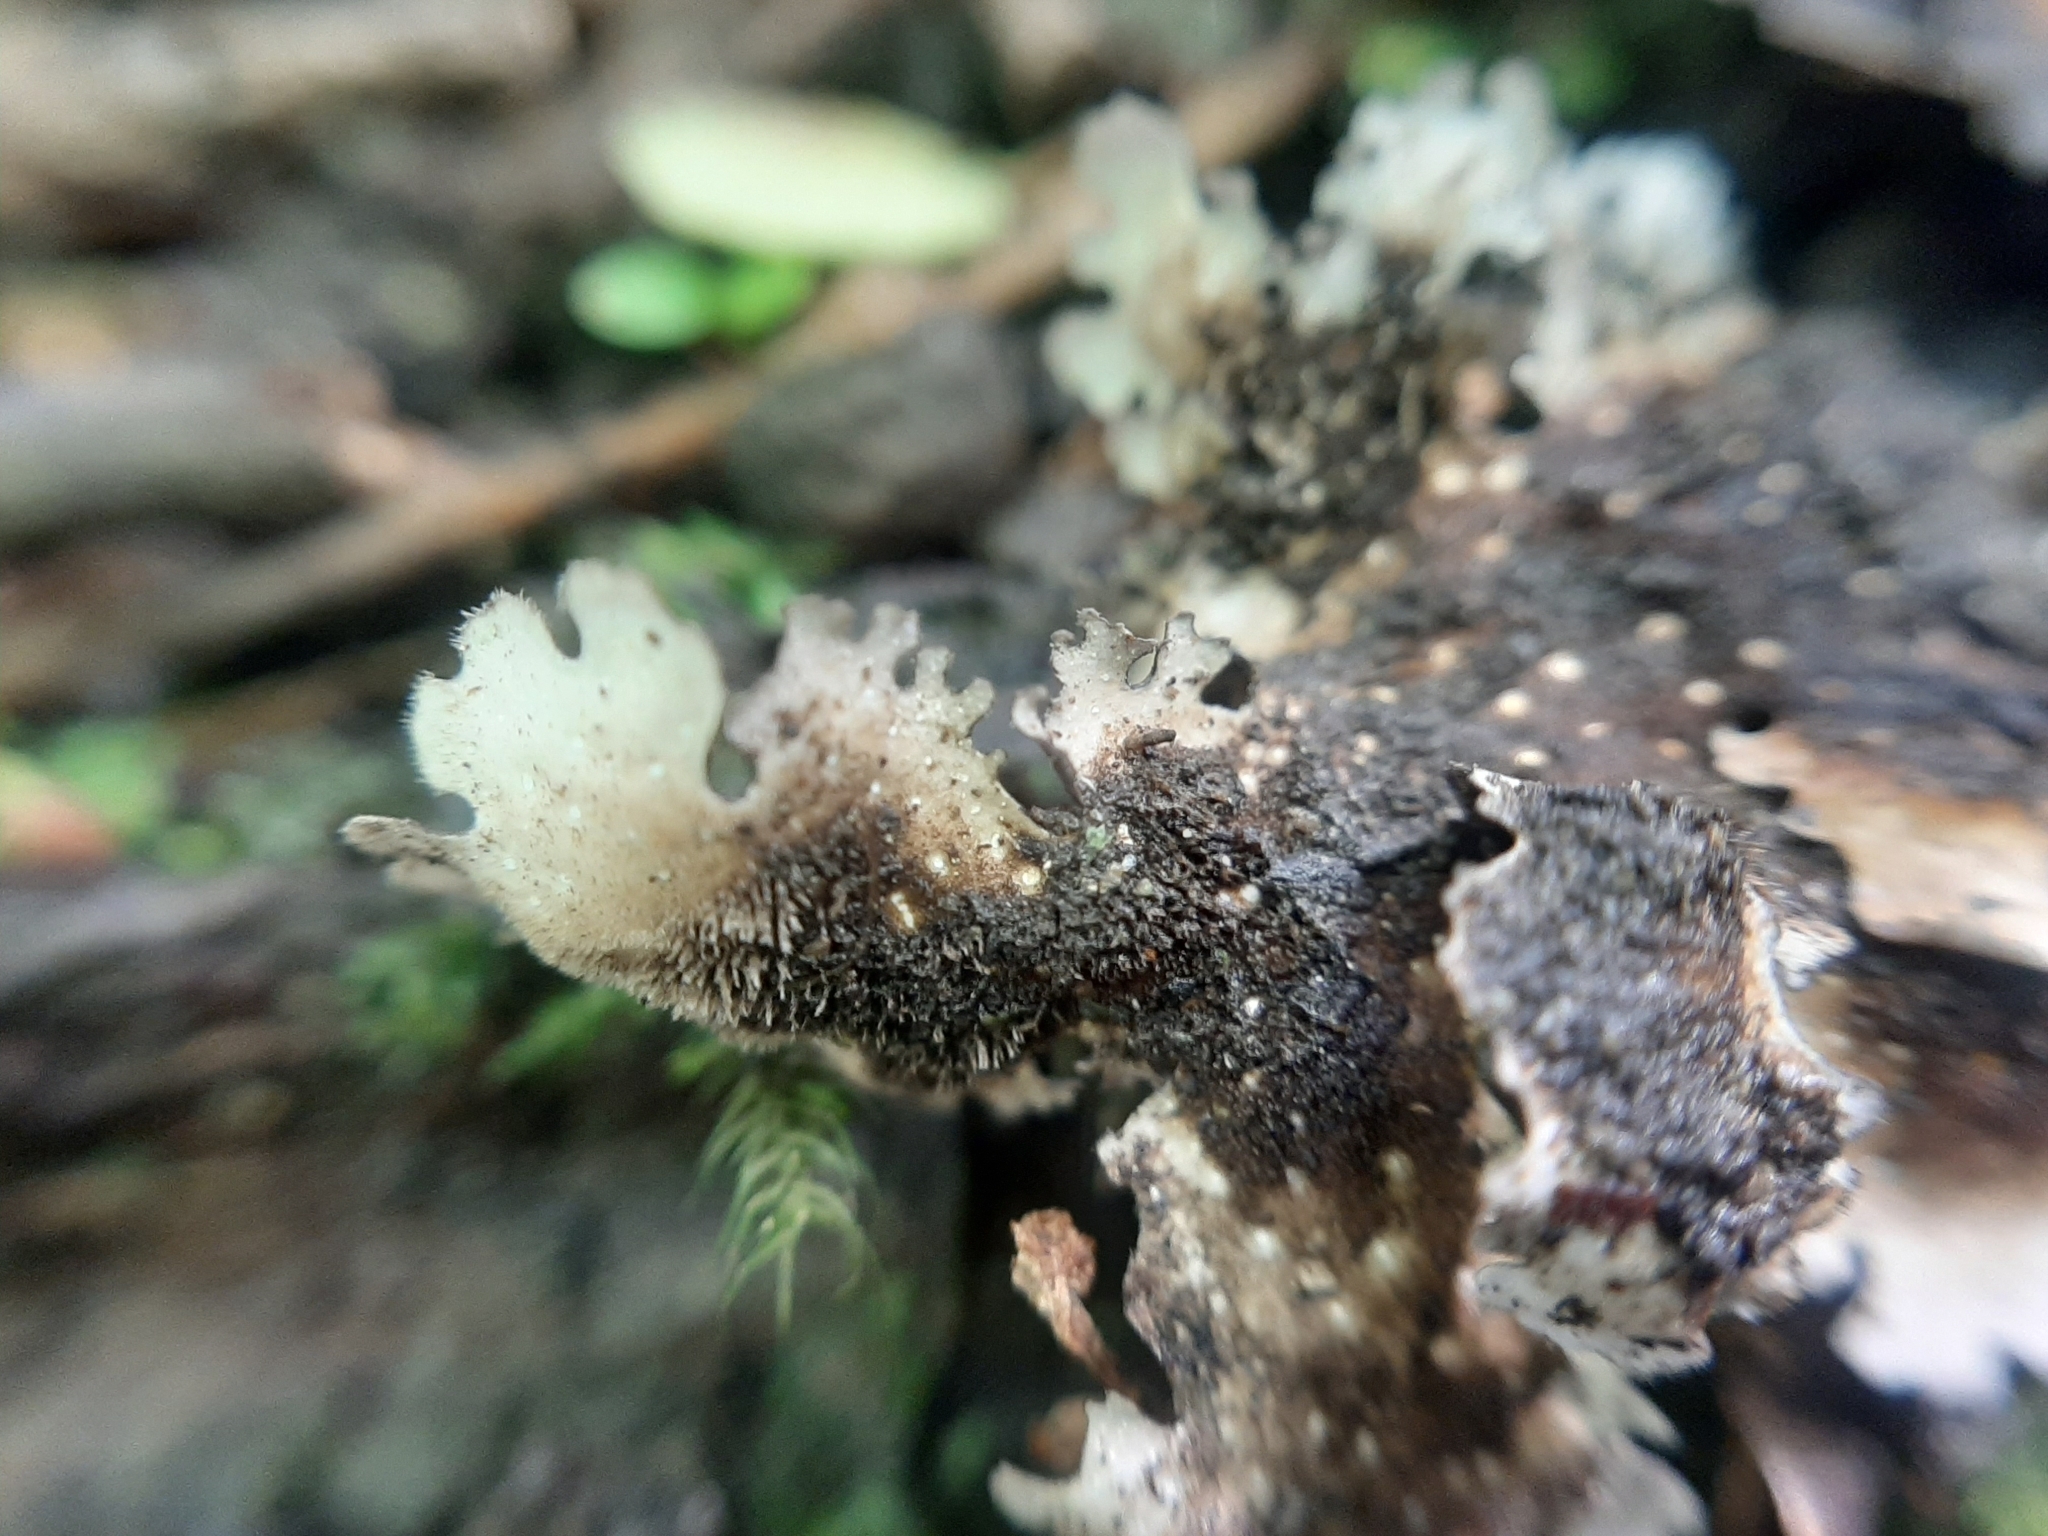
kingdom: Fungi
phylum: Ascomycota
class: Lecanoromycetes
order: Peltigerales
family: Lobariaceae
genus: Pseudocyphellaria
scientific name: Pseudocyphellaria fimbriatoides
